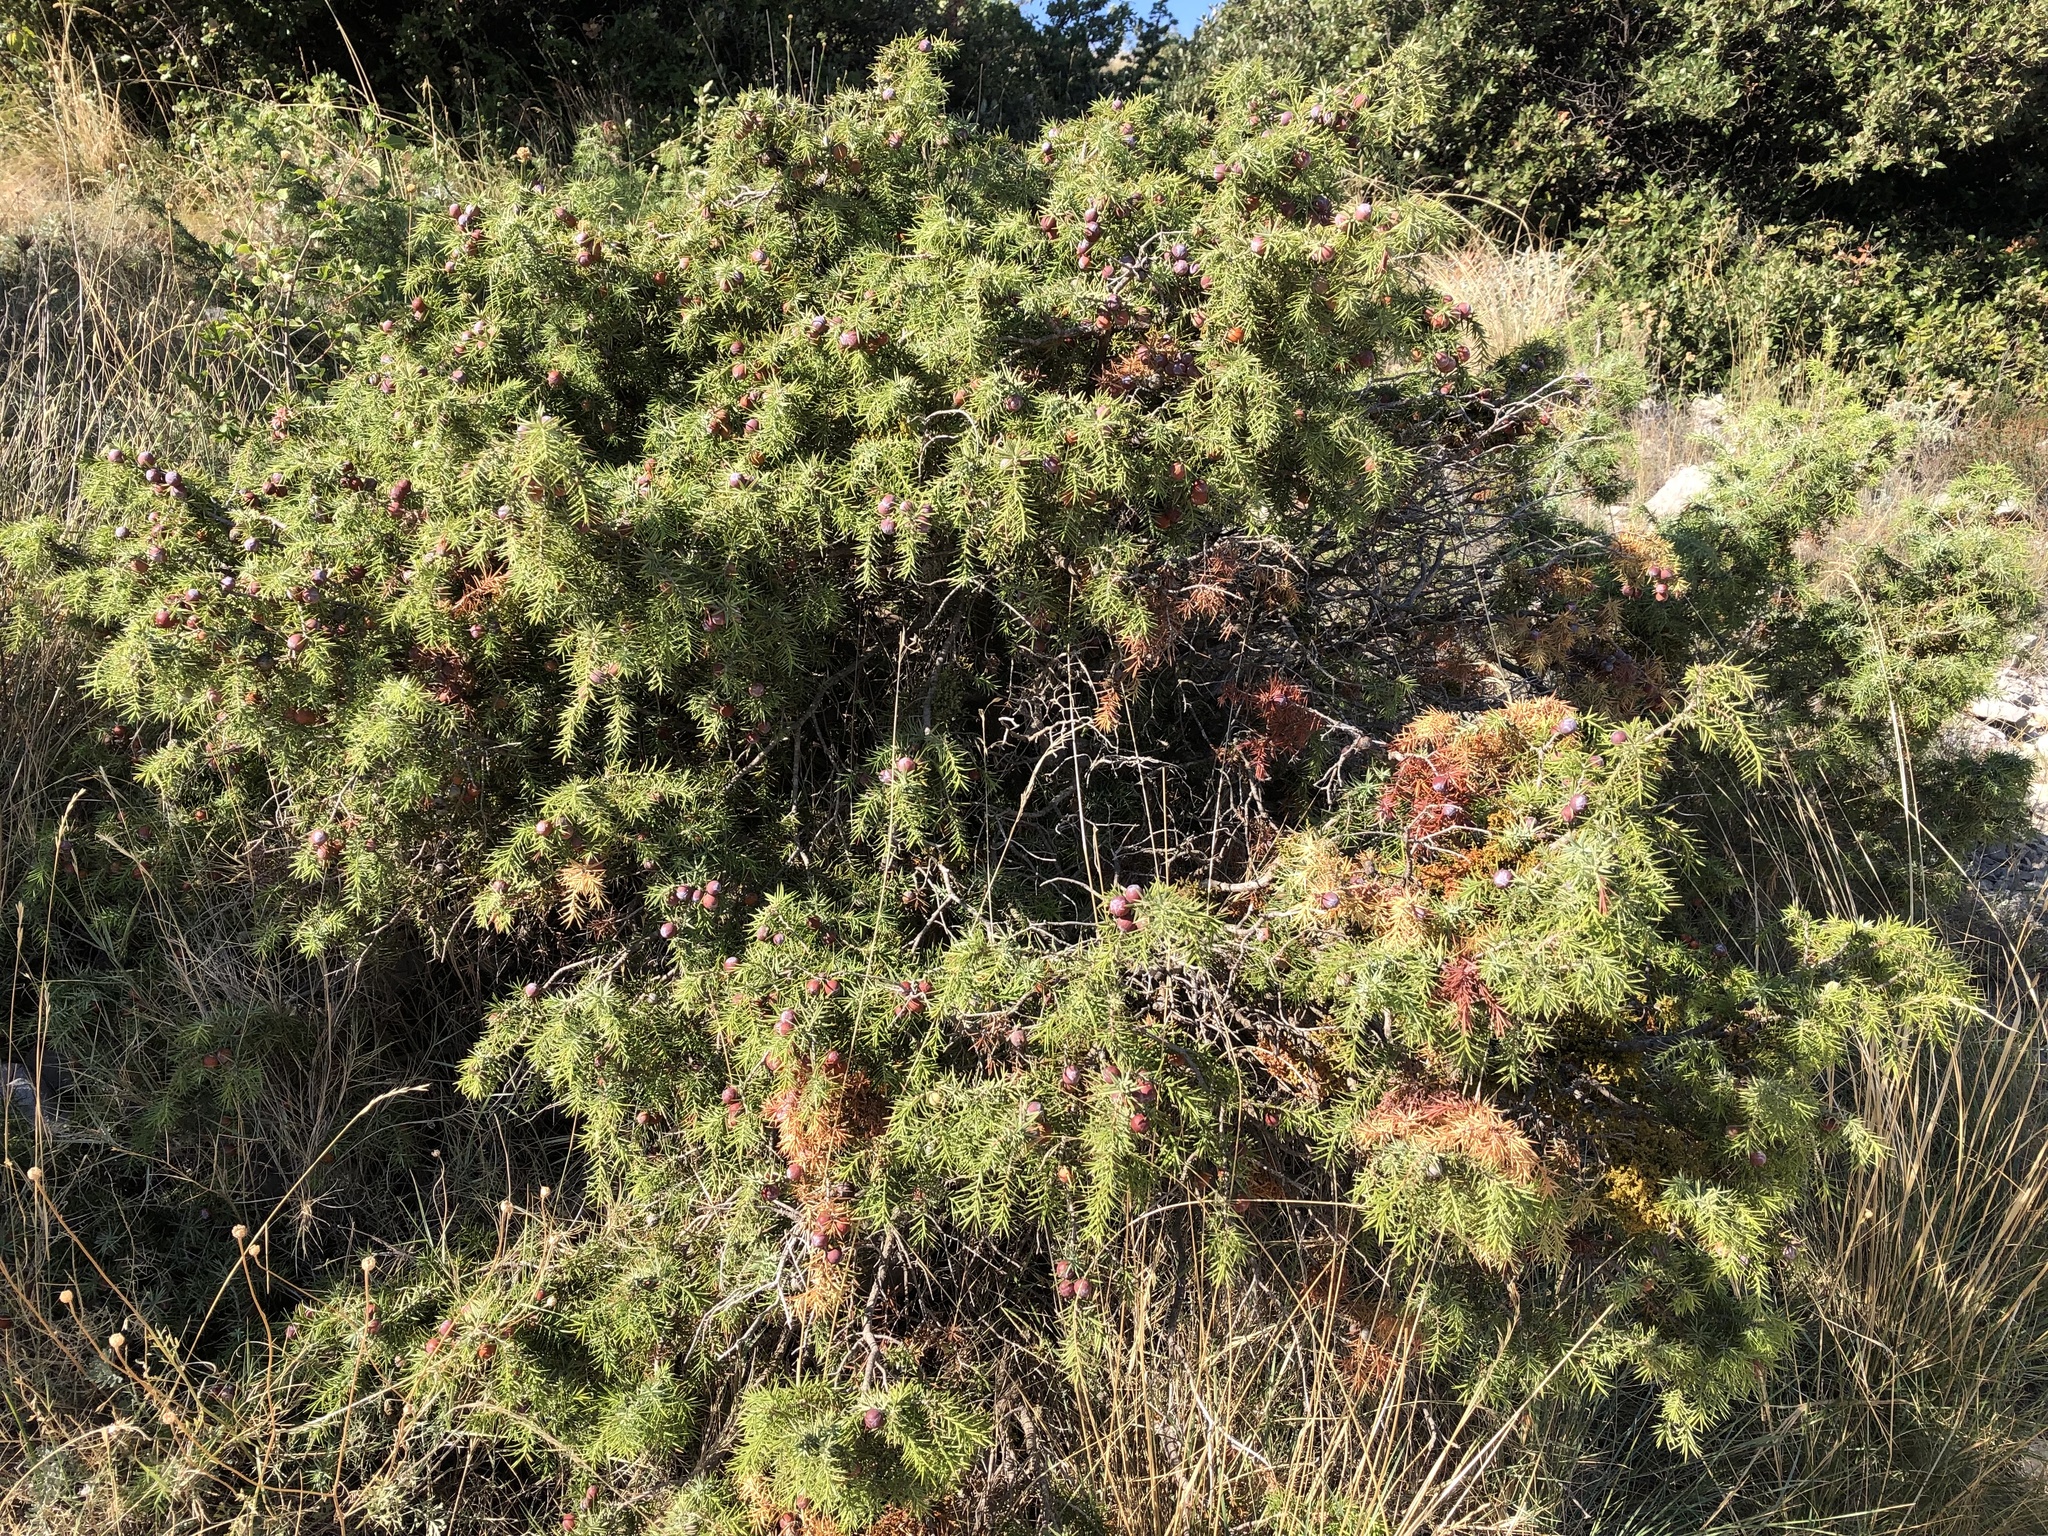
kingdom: Plantae
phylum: Tracheophyta
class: Pinopsida
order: Pinales
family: Cupressaceae
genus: Juniperus
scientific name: Juniperus oxycedrus
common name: Prickly juniper
